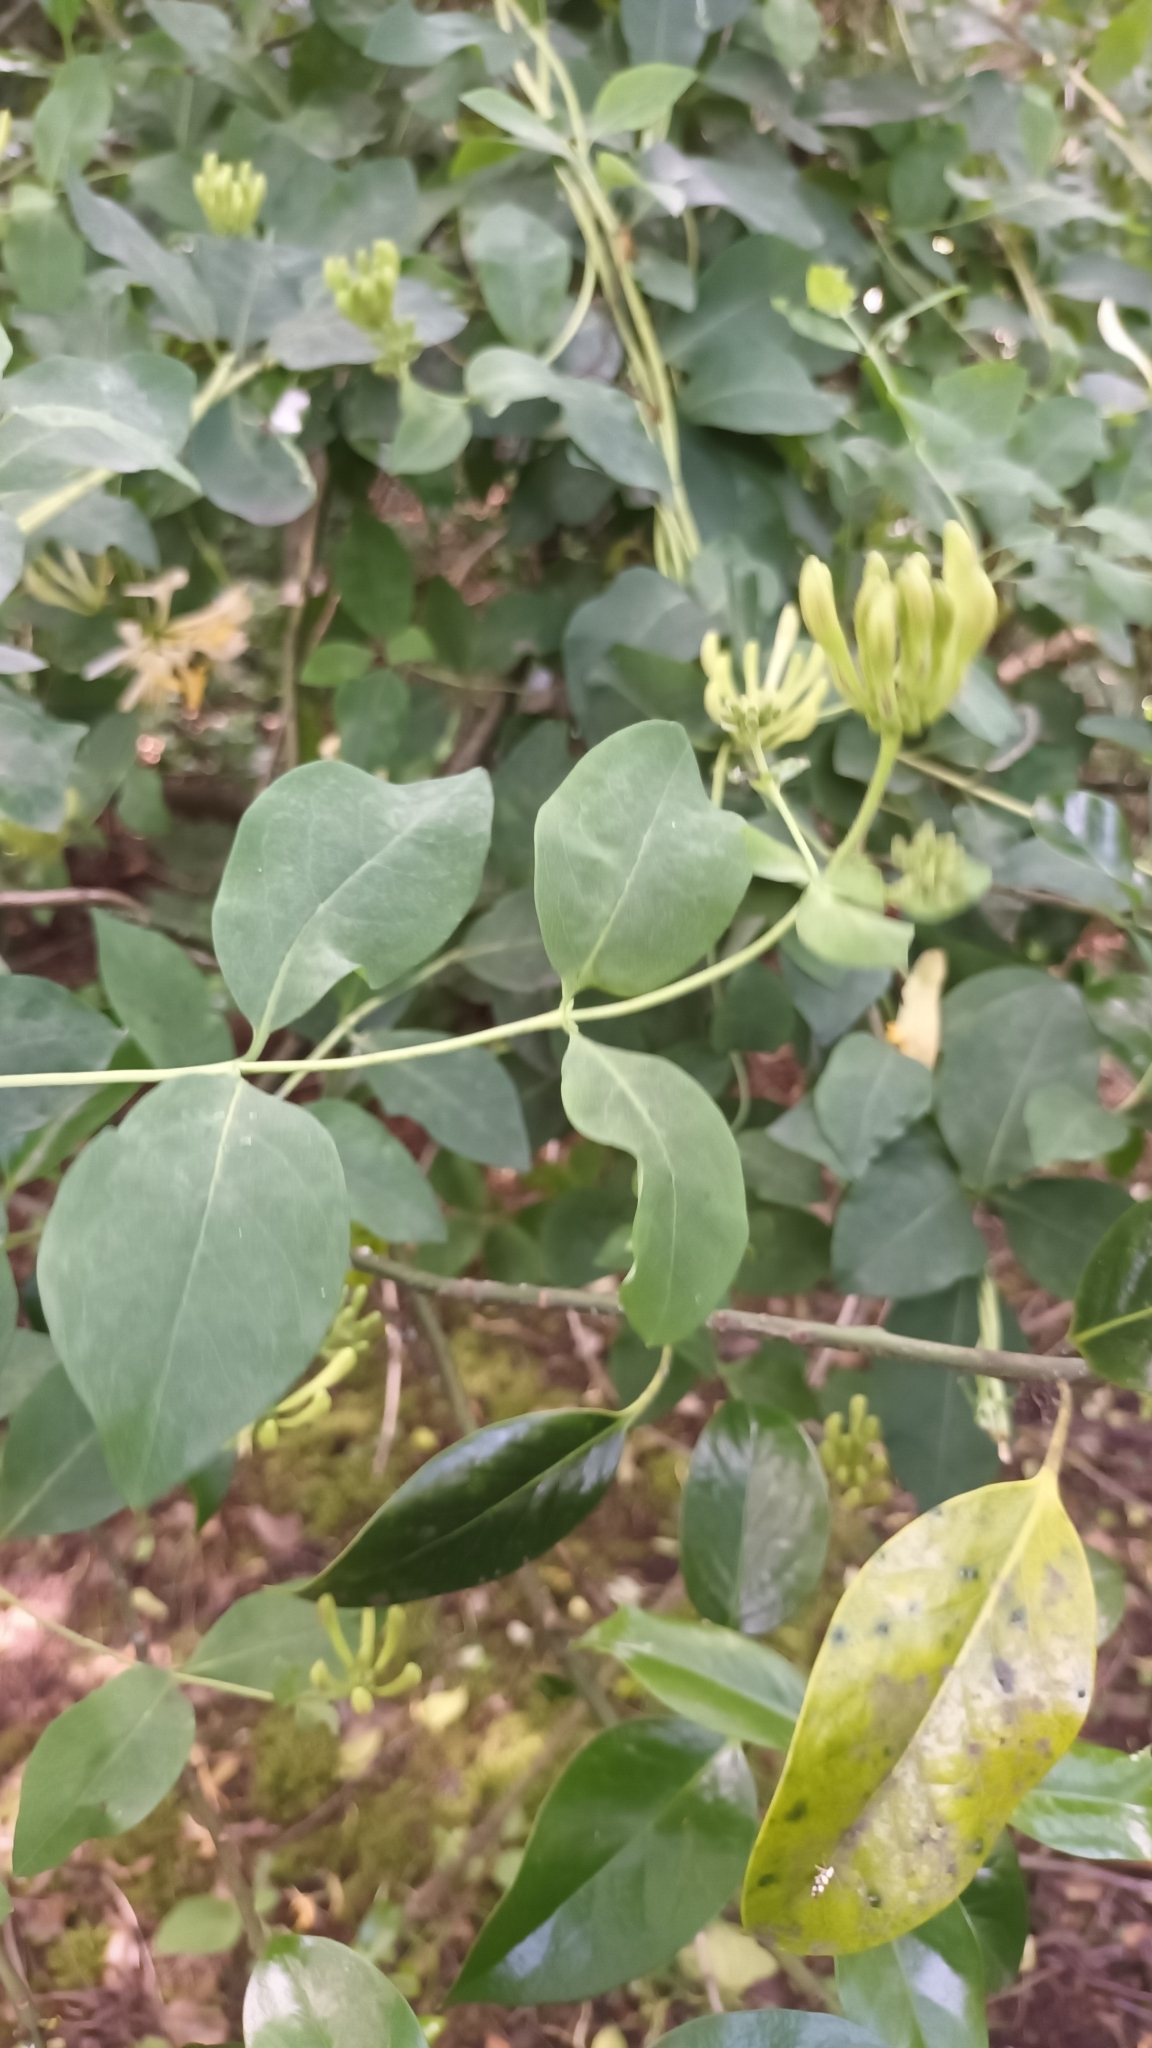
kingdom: Plantae
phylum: Tracheophyta
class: Magnoliopsida
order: Dipsacales
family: Caprifoliaceae
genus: Lonicera
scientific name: Lonicera periclymenum
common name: European honeysuckle
